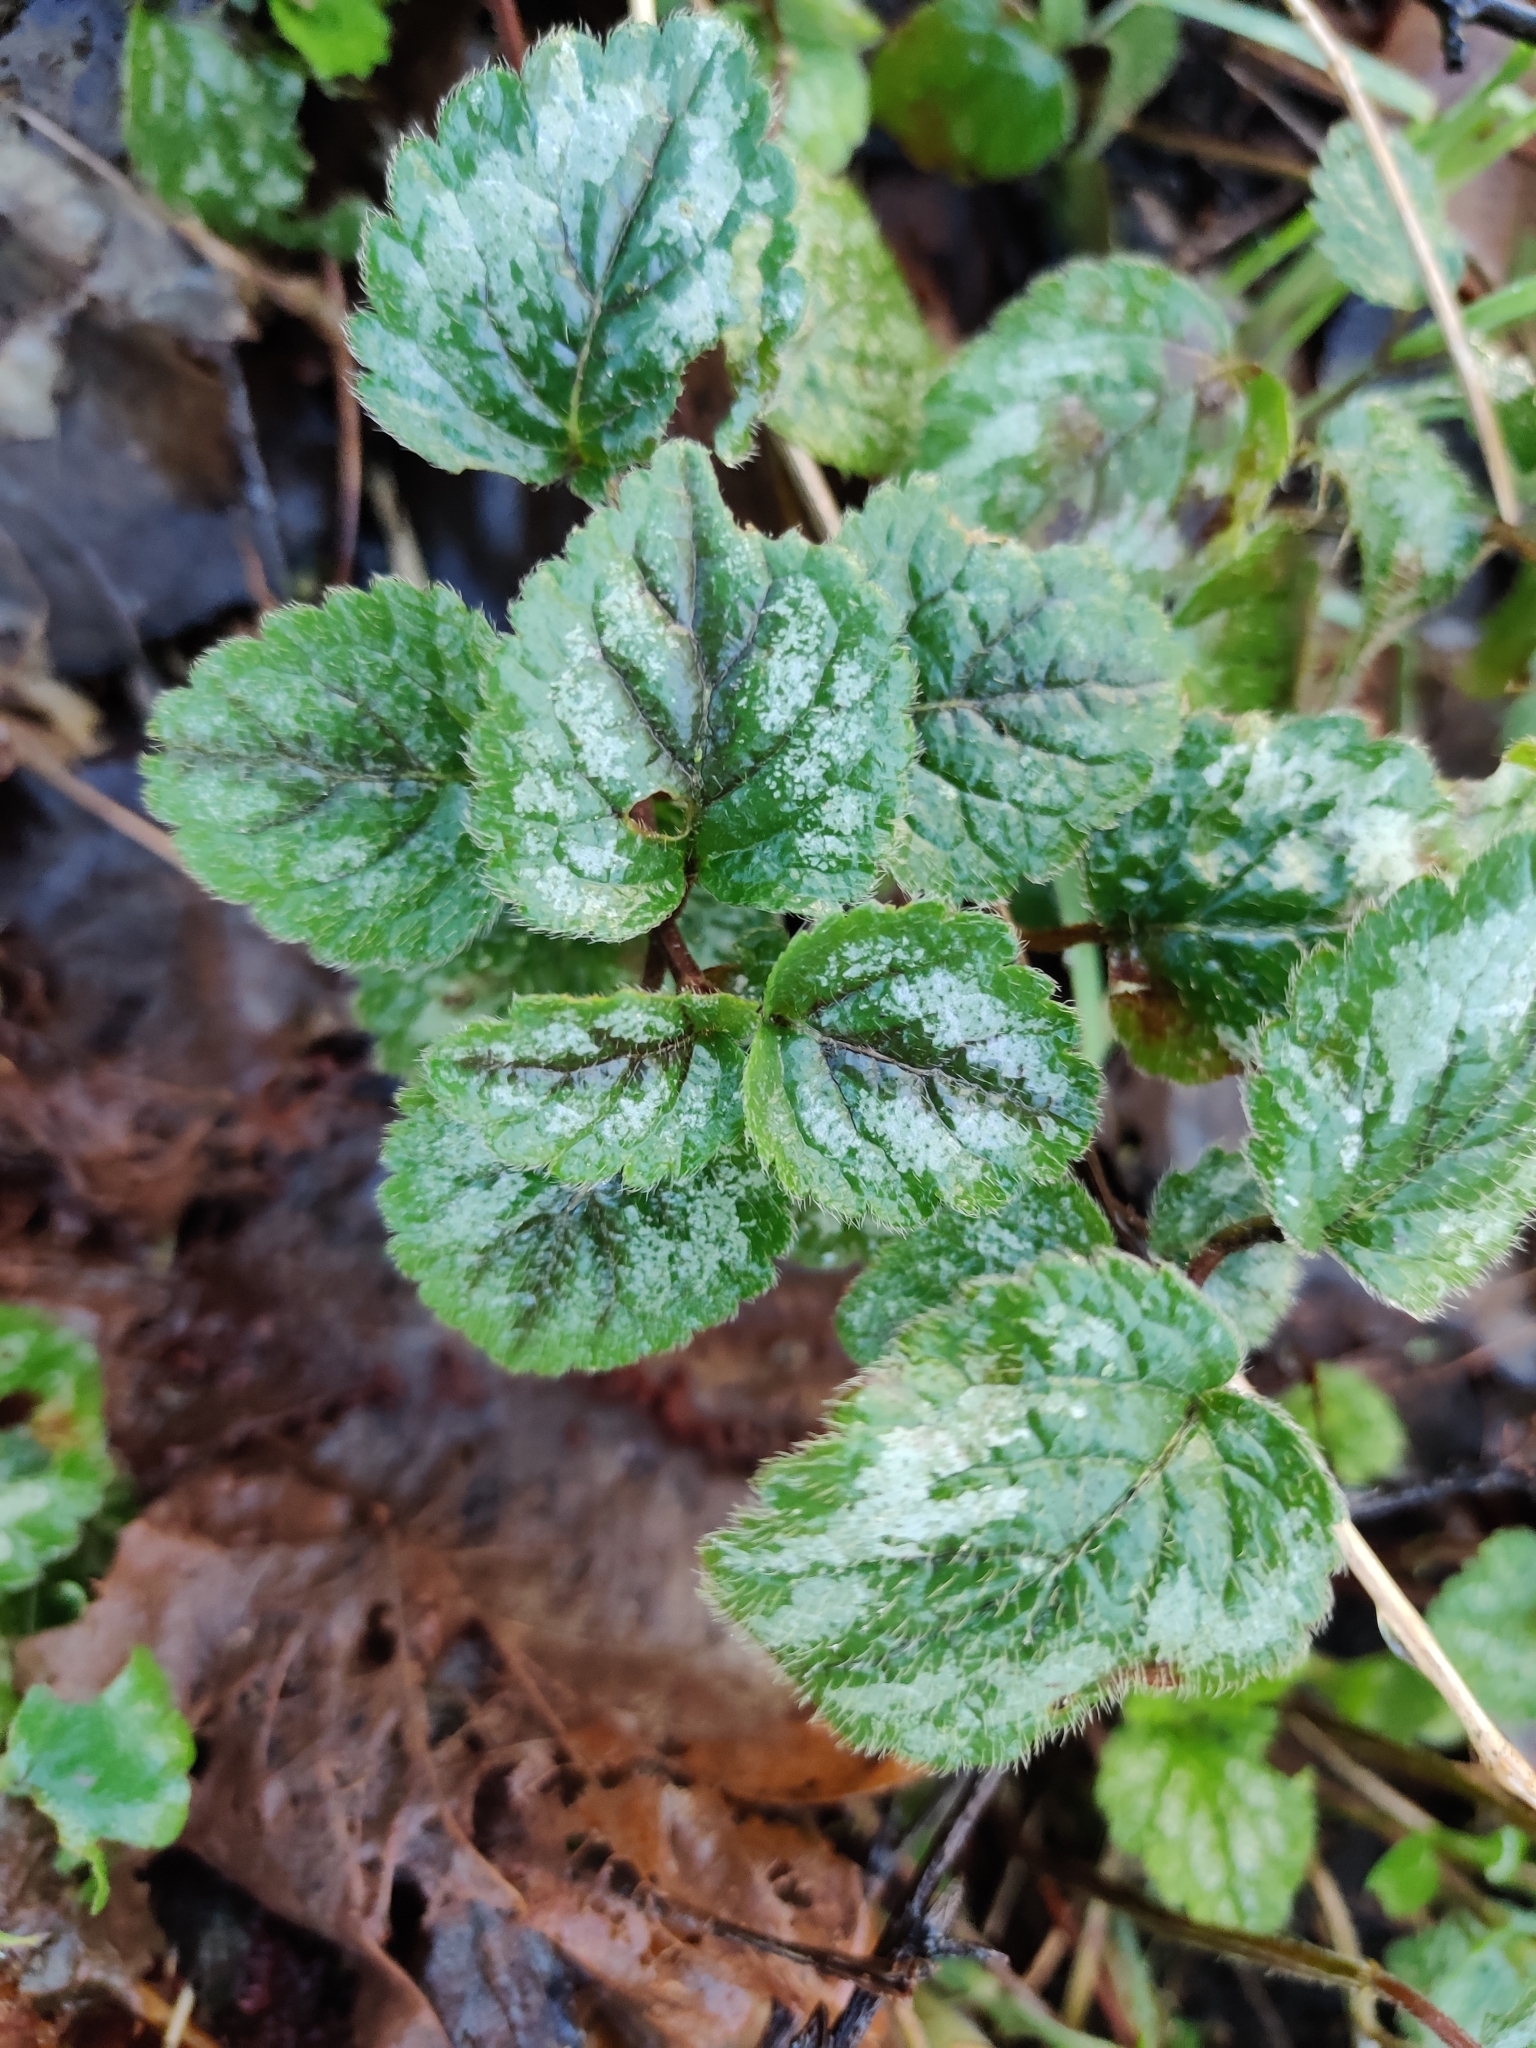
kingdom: Plantae
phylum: Tracheophyta
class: Magnoliopsida
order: Lamiales
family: Lamiaceae
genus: Lamium
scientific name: Lamium galeobdolon
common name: Yellow archangel
